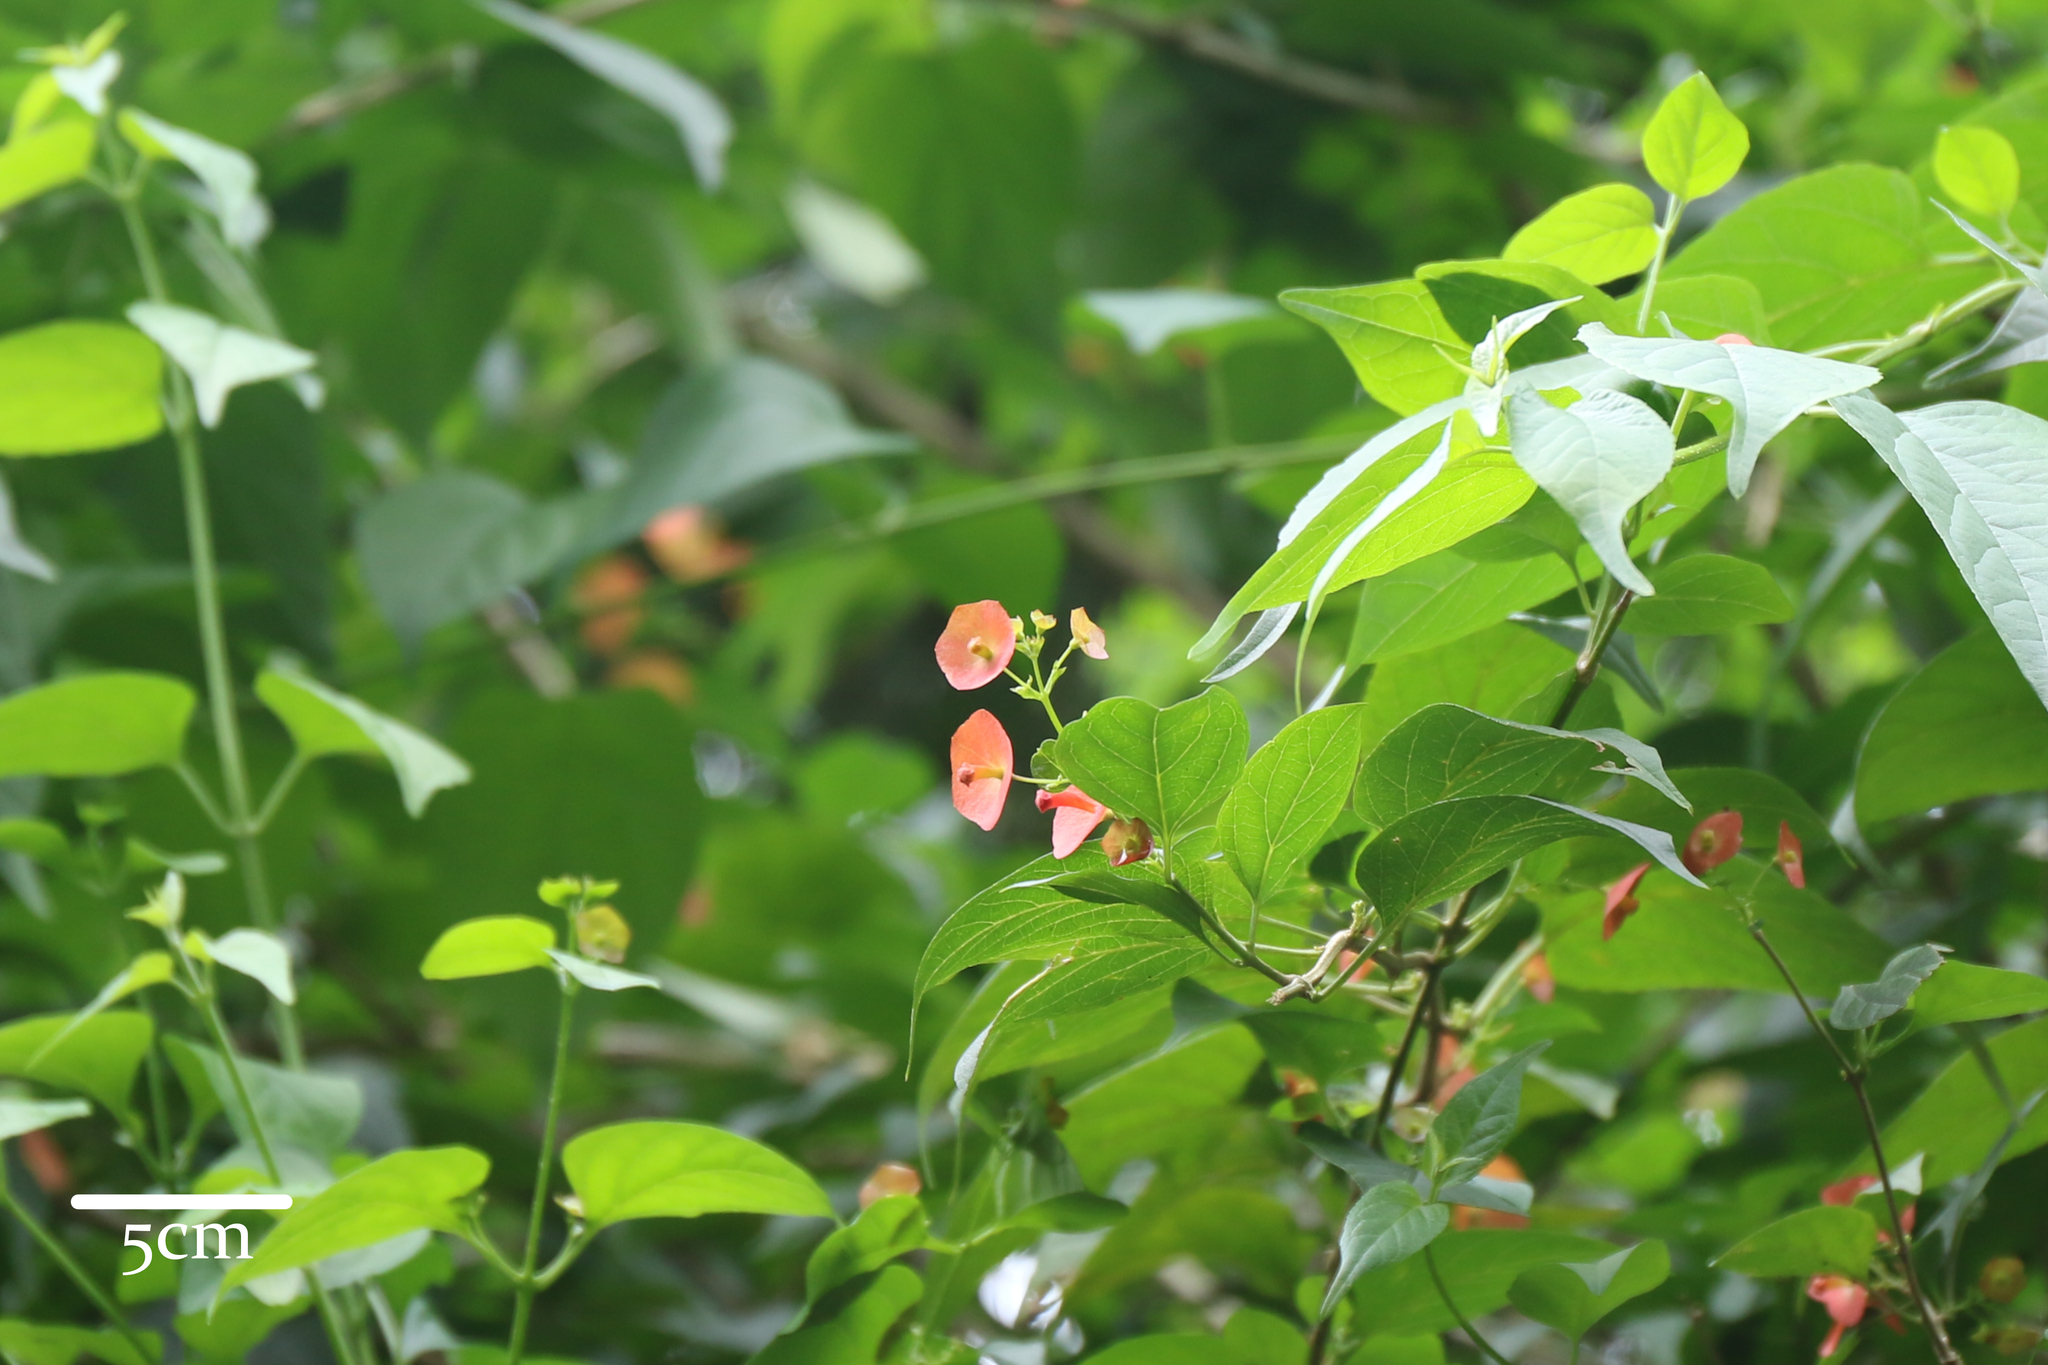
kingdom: Plantae
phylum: Tracheophyta
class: Magnoliopsida
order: Lamiales
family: Lamiaceae
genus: Holmskioldia
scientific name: Holmskioldia sanguinea
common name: Chinese hatplant
